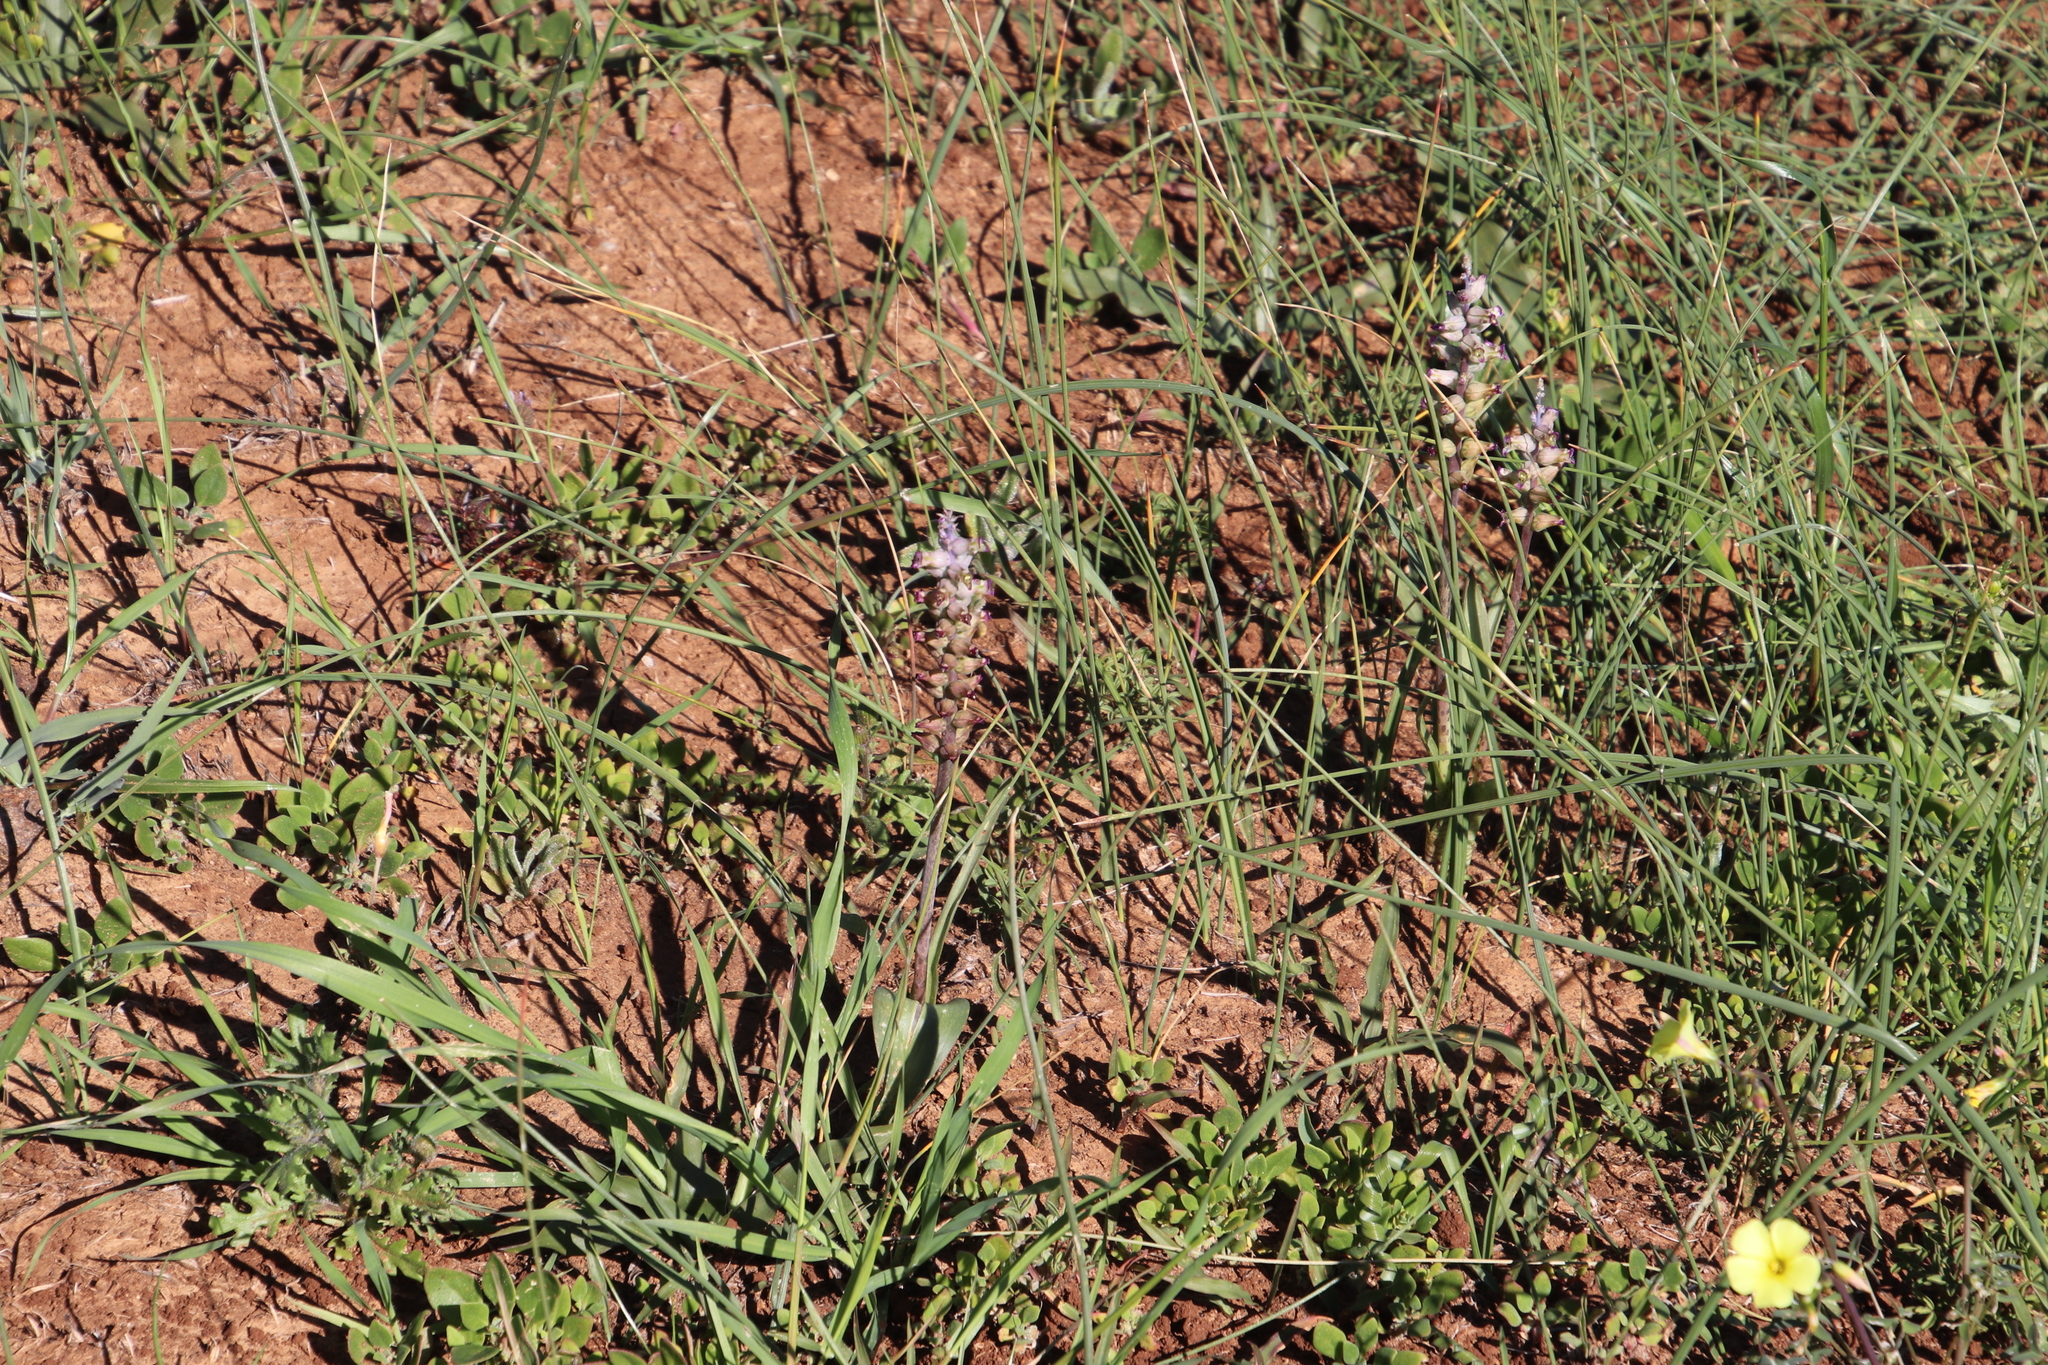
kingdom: Plantae
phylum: Tracheophyta
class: Liliopsida
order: Asparagales
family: Asparagaceae
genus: Lachenalia
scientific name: Lachenalia obscura
